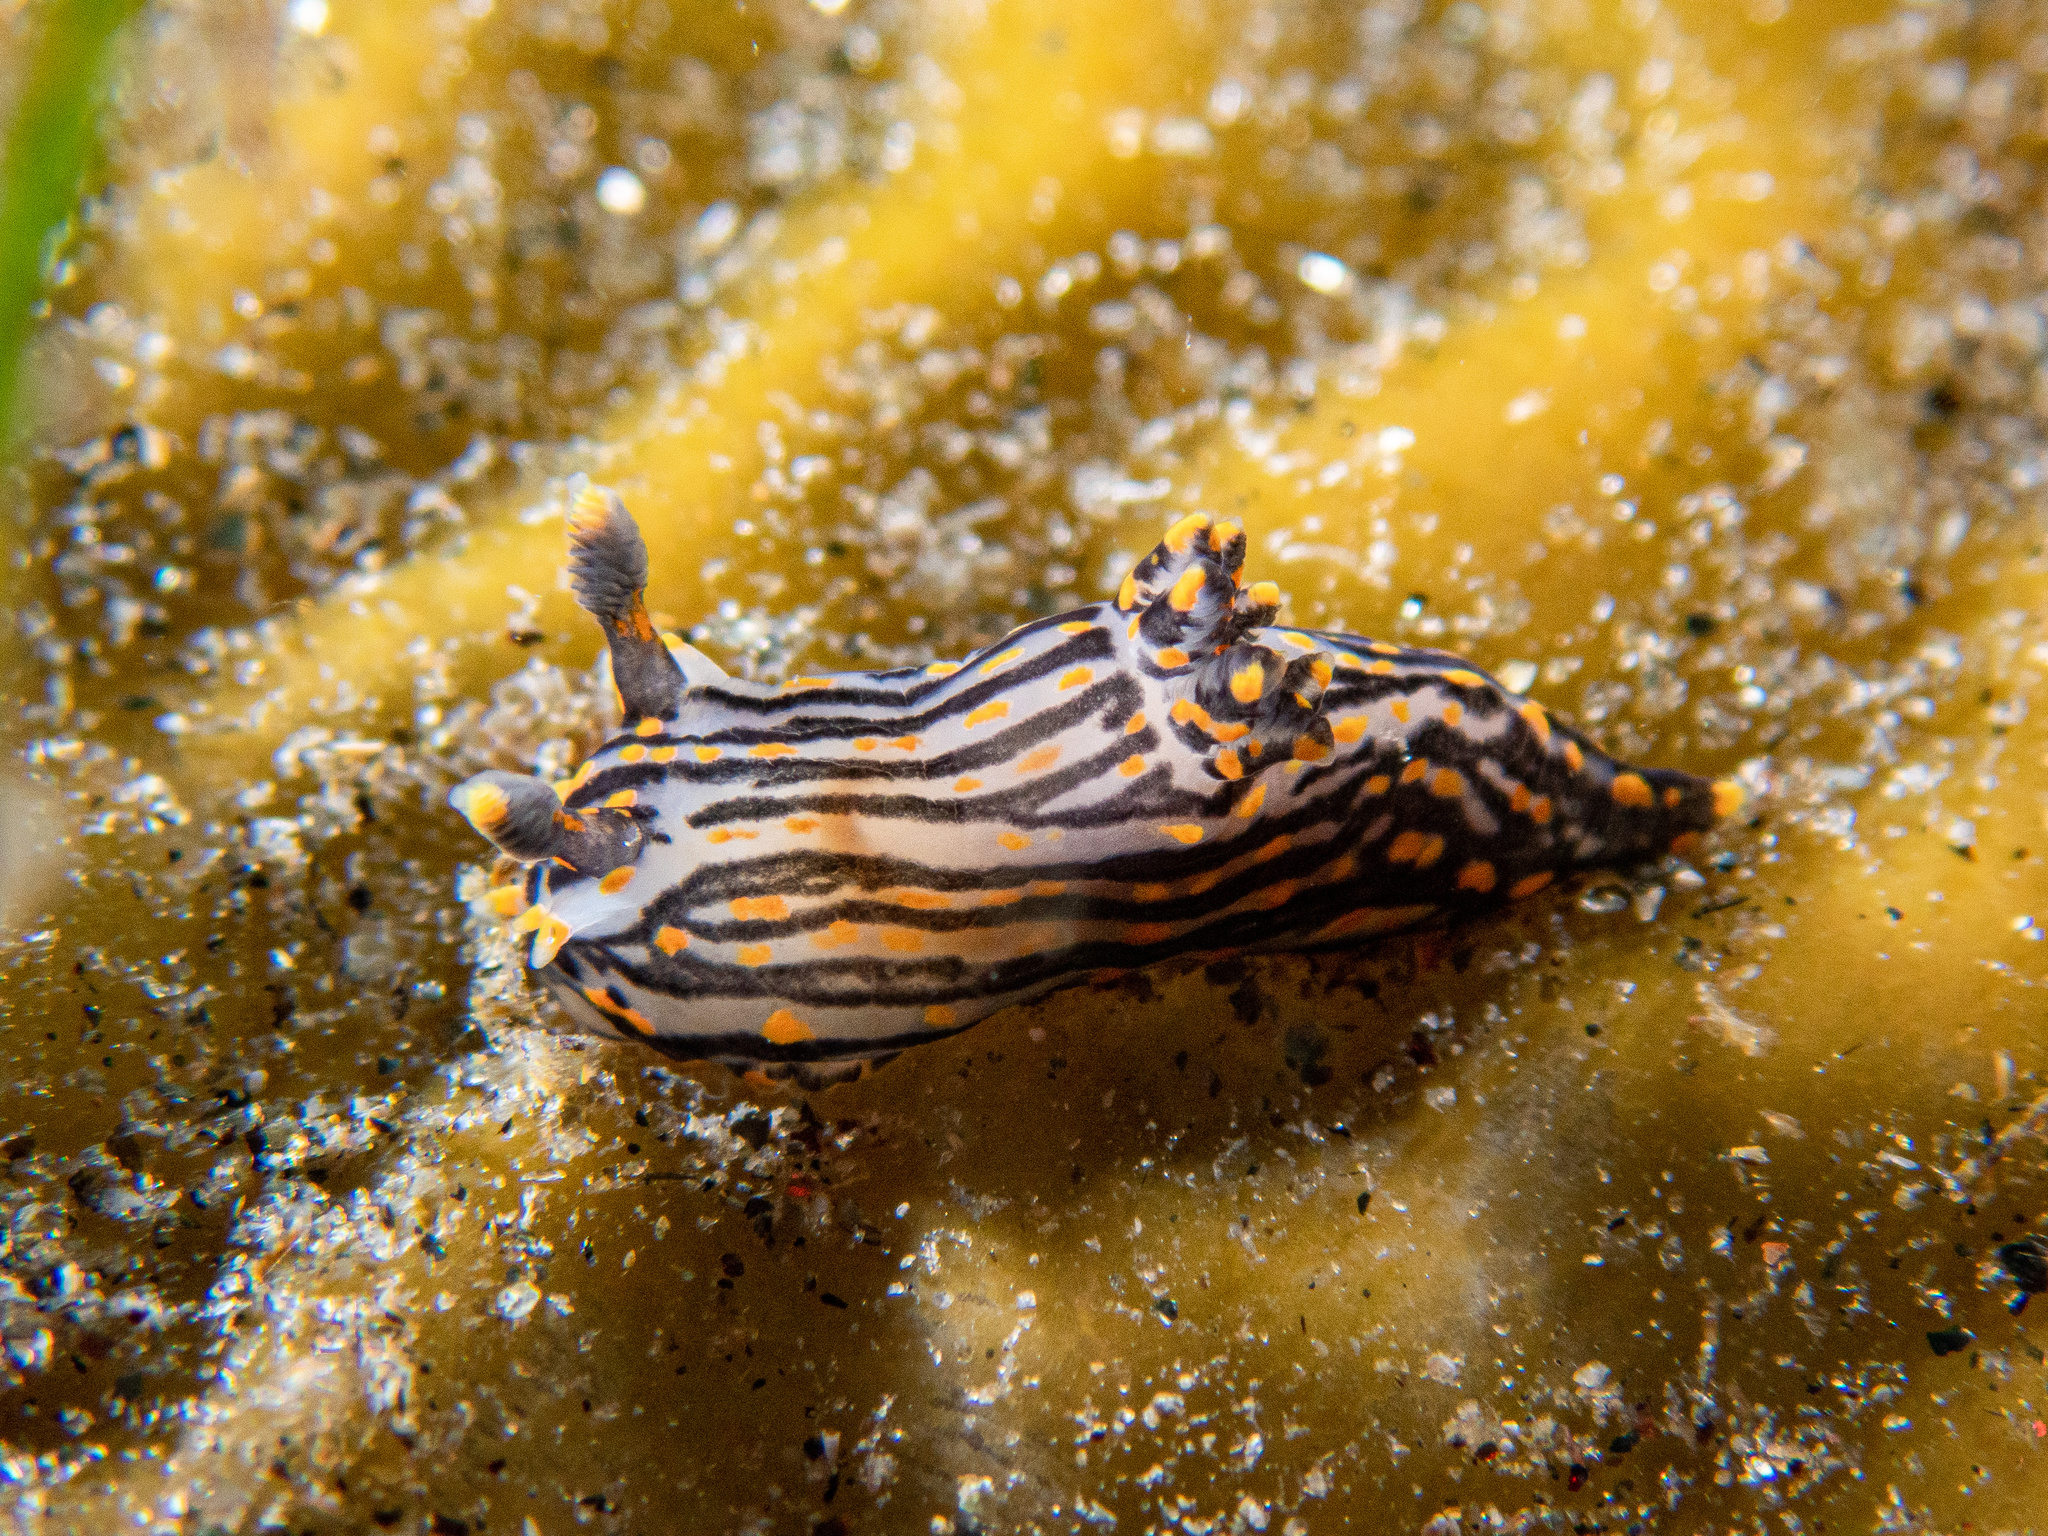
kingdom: Animalia
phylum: Mollusca
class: Gastropoda
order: Nudibranchia
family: Polyceridae
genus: Polycera
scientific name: Polycera atra
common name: Orange-spike polycera
